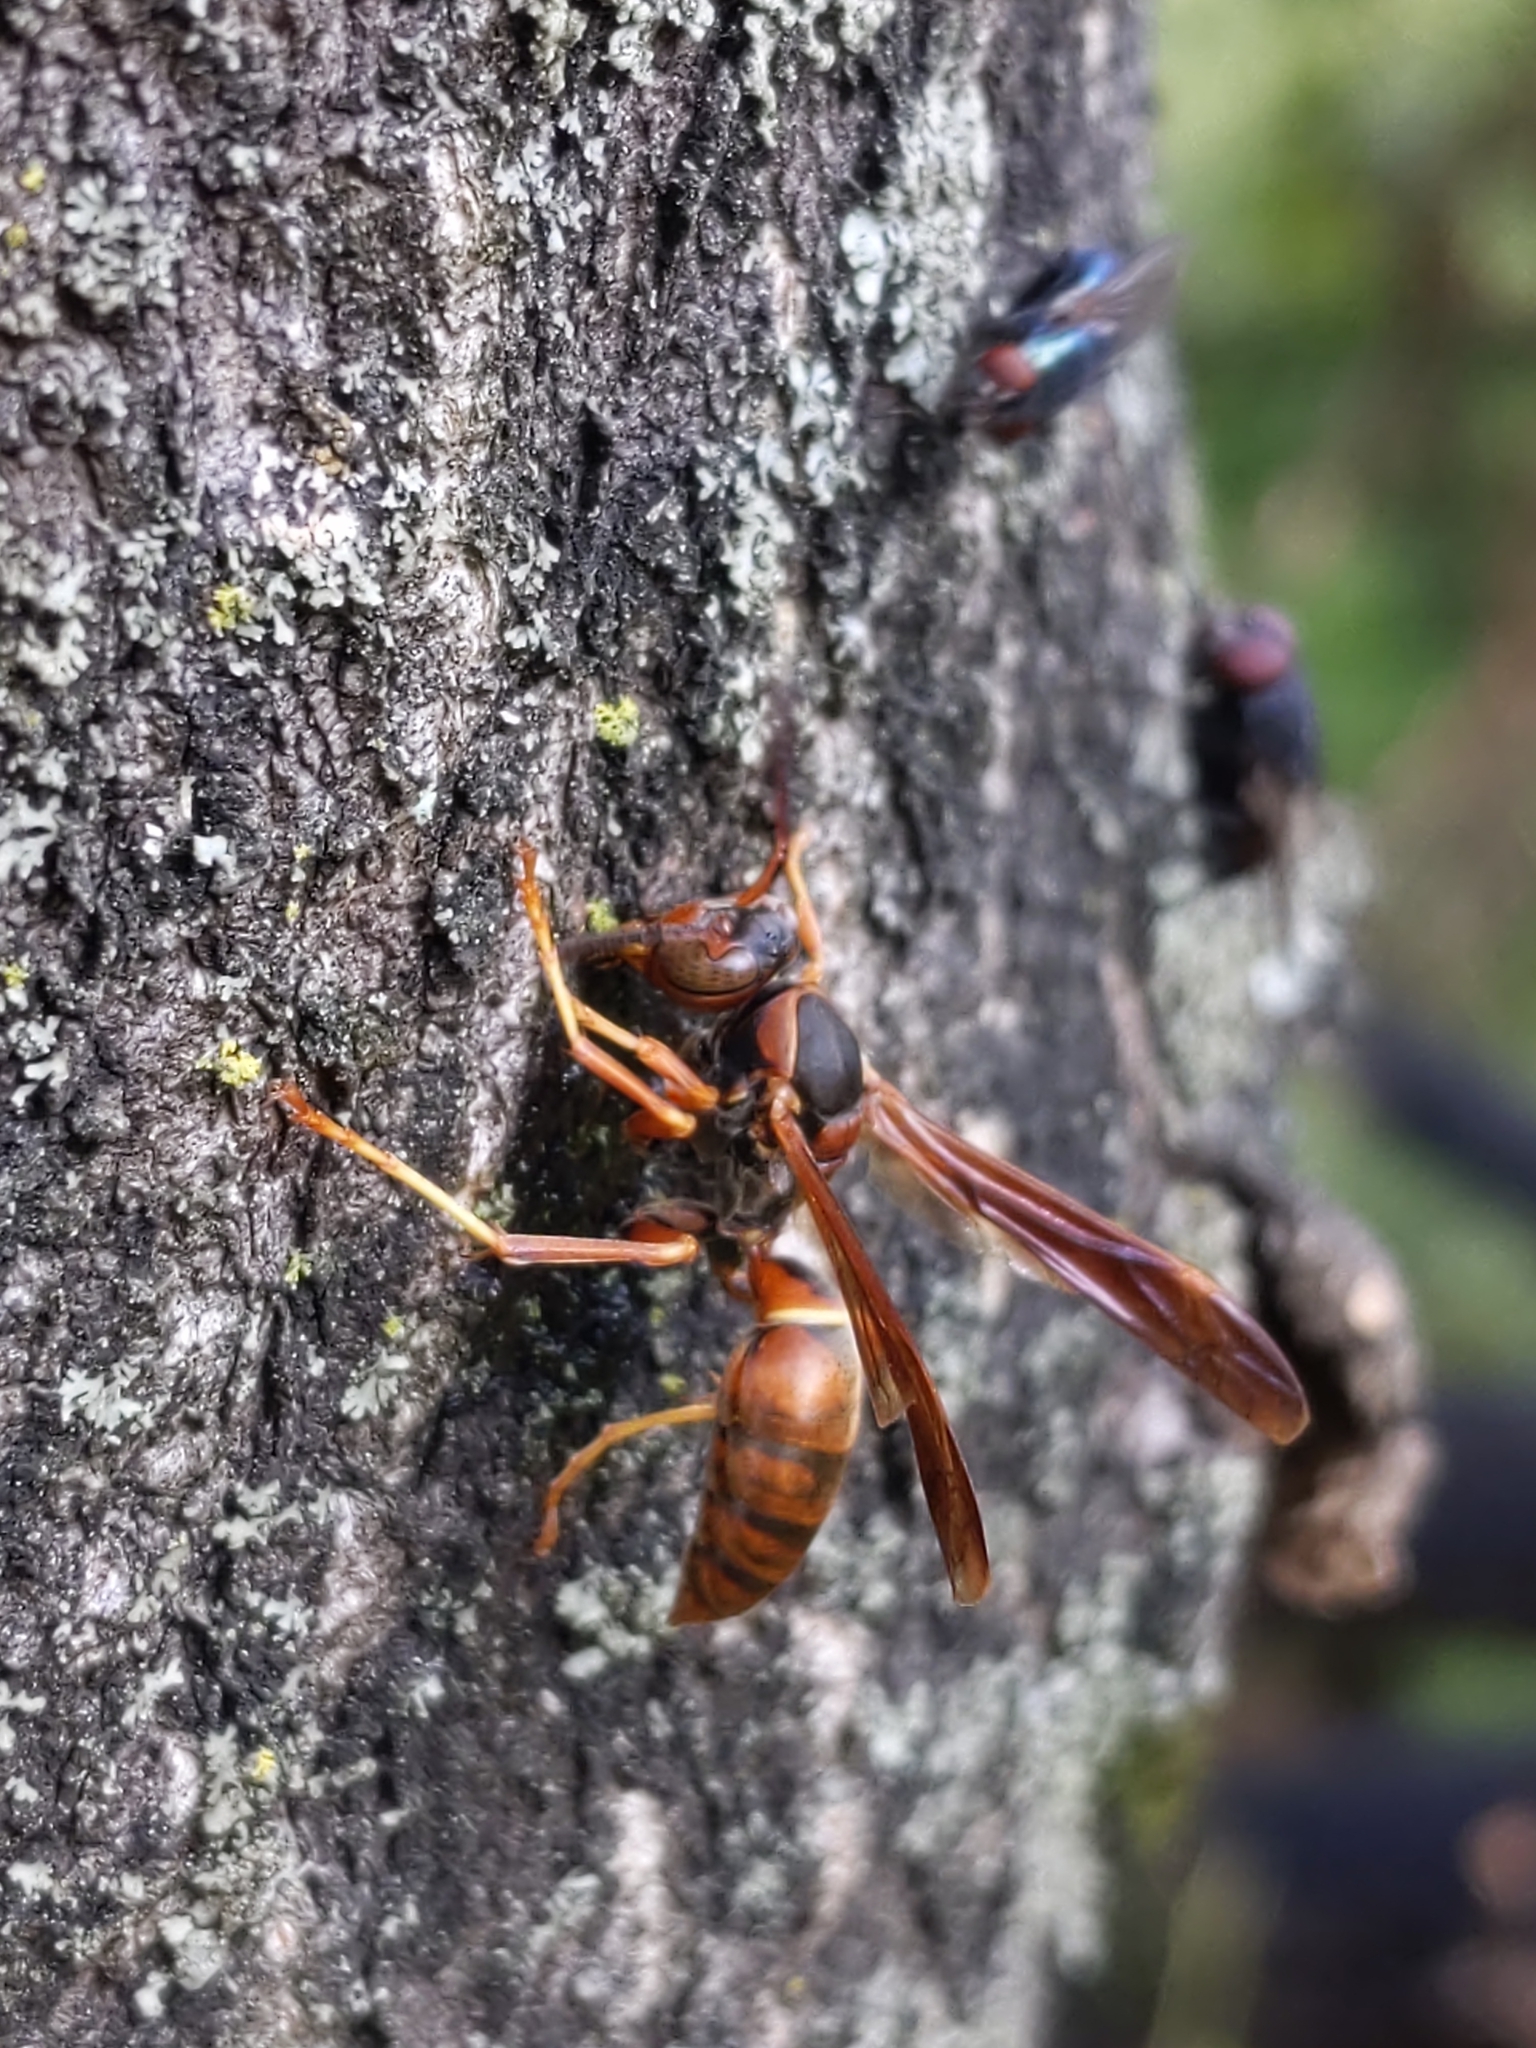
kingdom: Animalia
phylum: Arthropoda
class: Insecta
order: Hymenoptera
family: Eumenidae
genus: Polistes
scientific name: Polistes fuscatus
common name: Dark paper wasp
